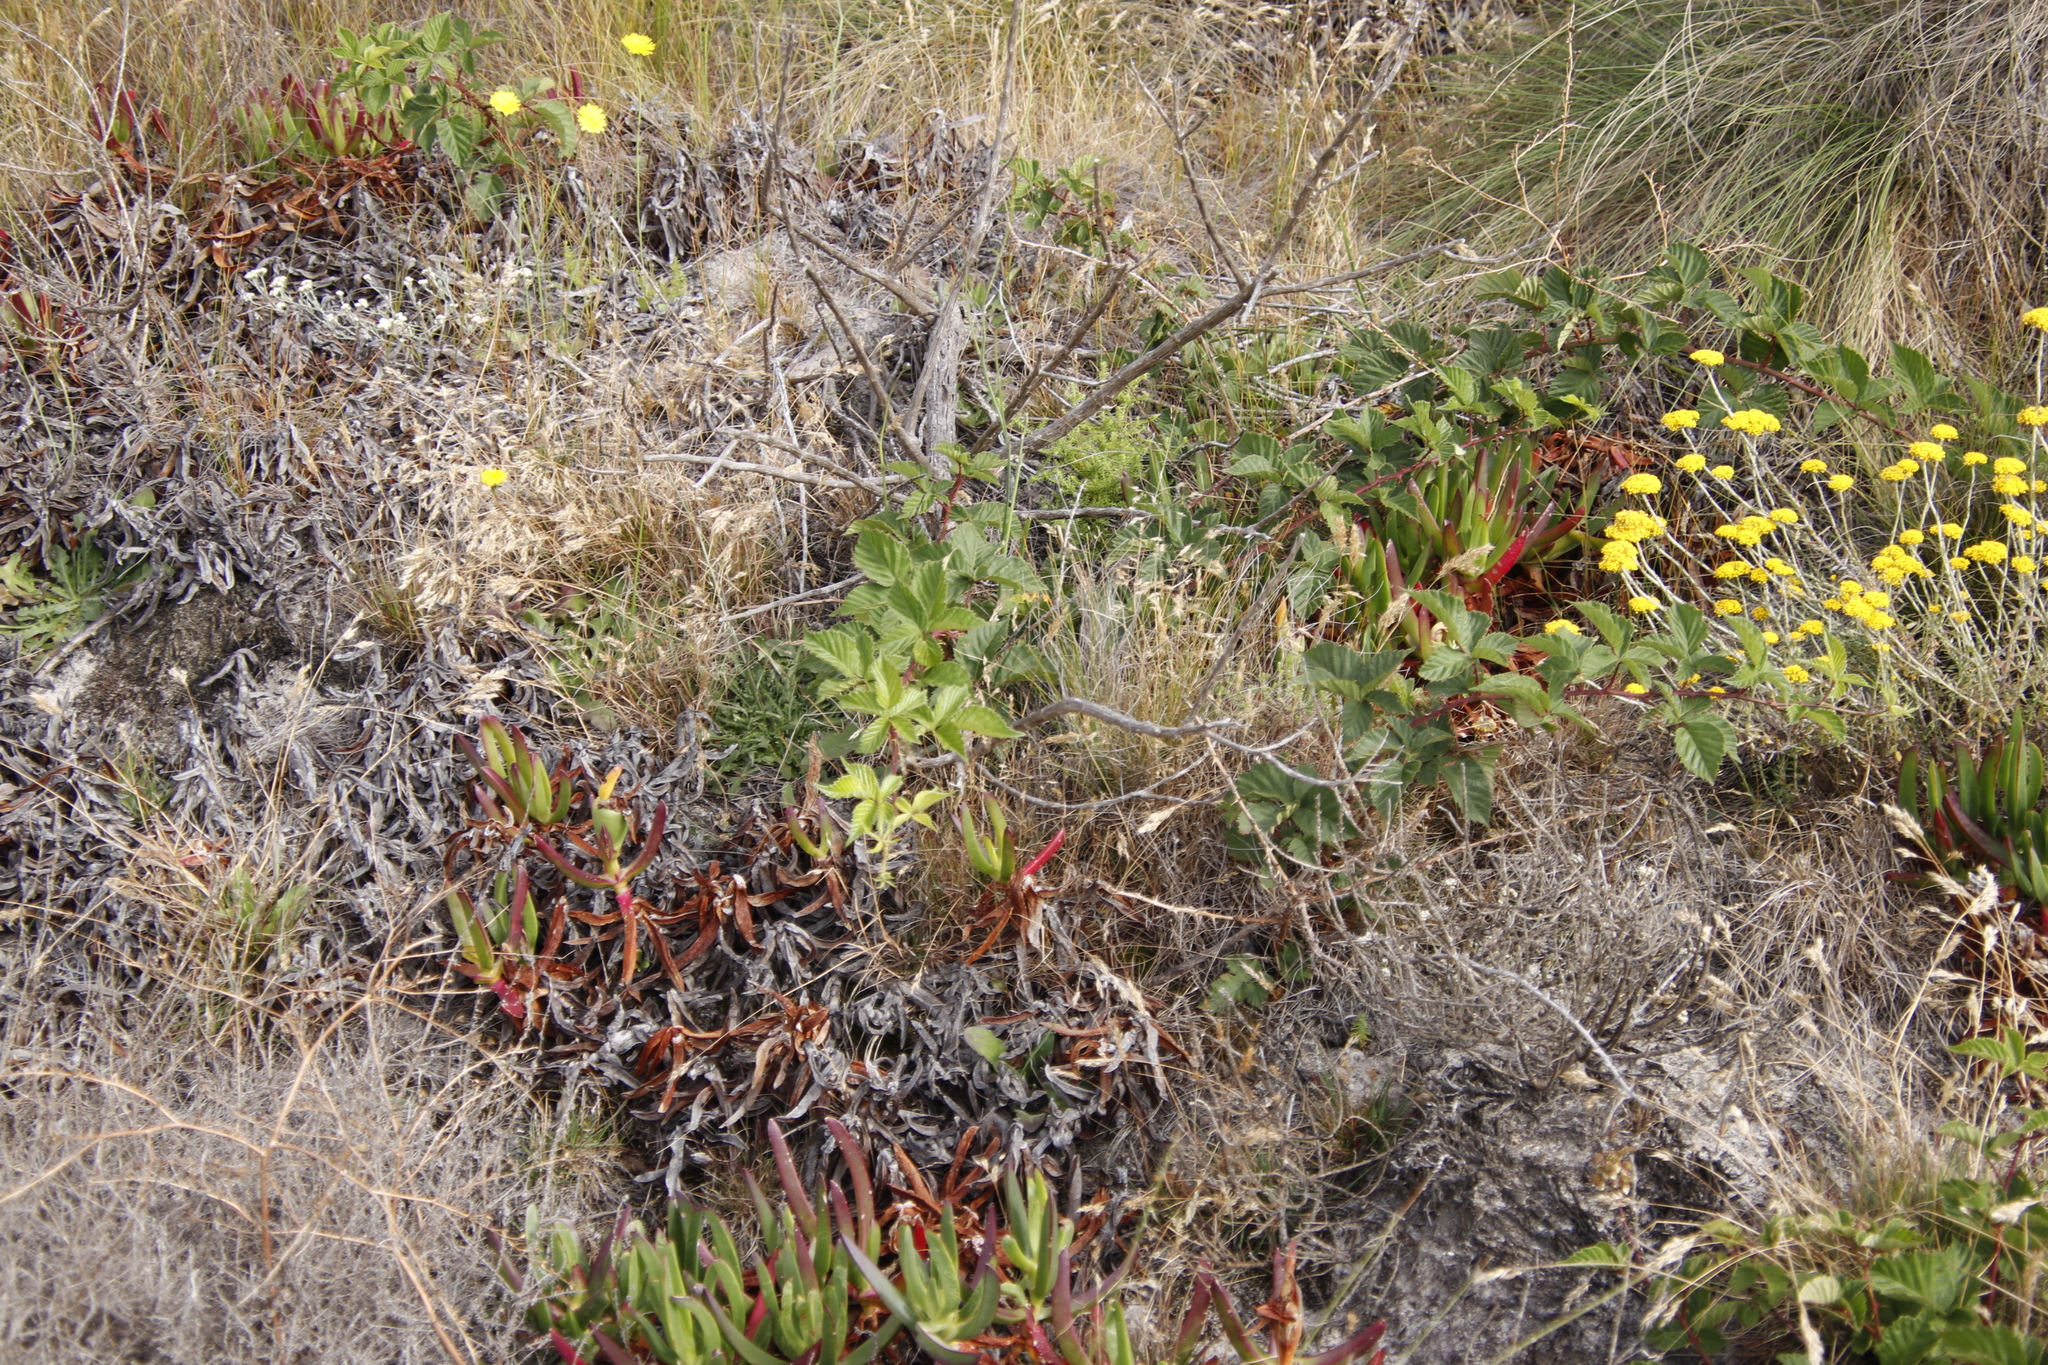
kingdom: Plantae
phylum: Tracheophyta
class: Magnoliopsida
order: Rosales
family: Rosaceae
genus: Rubus
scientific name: Rubus affinis
